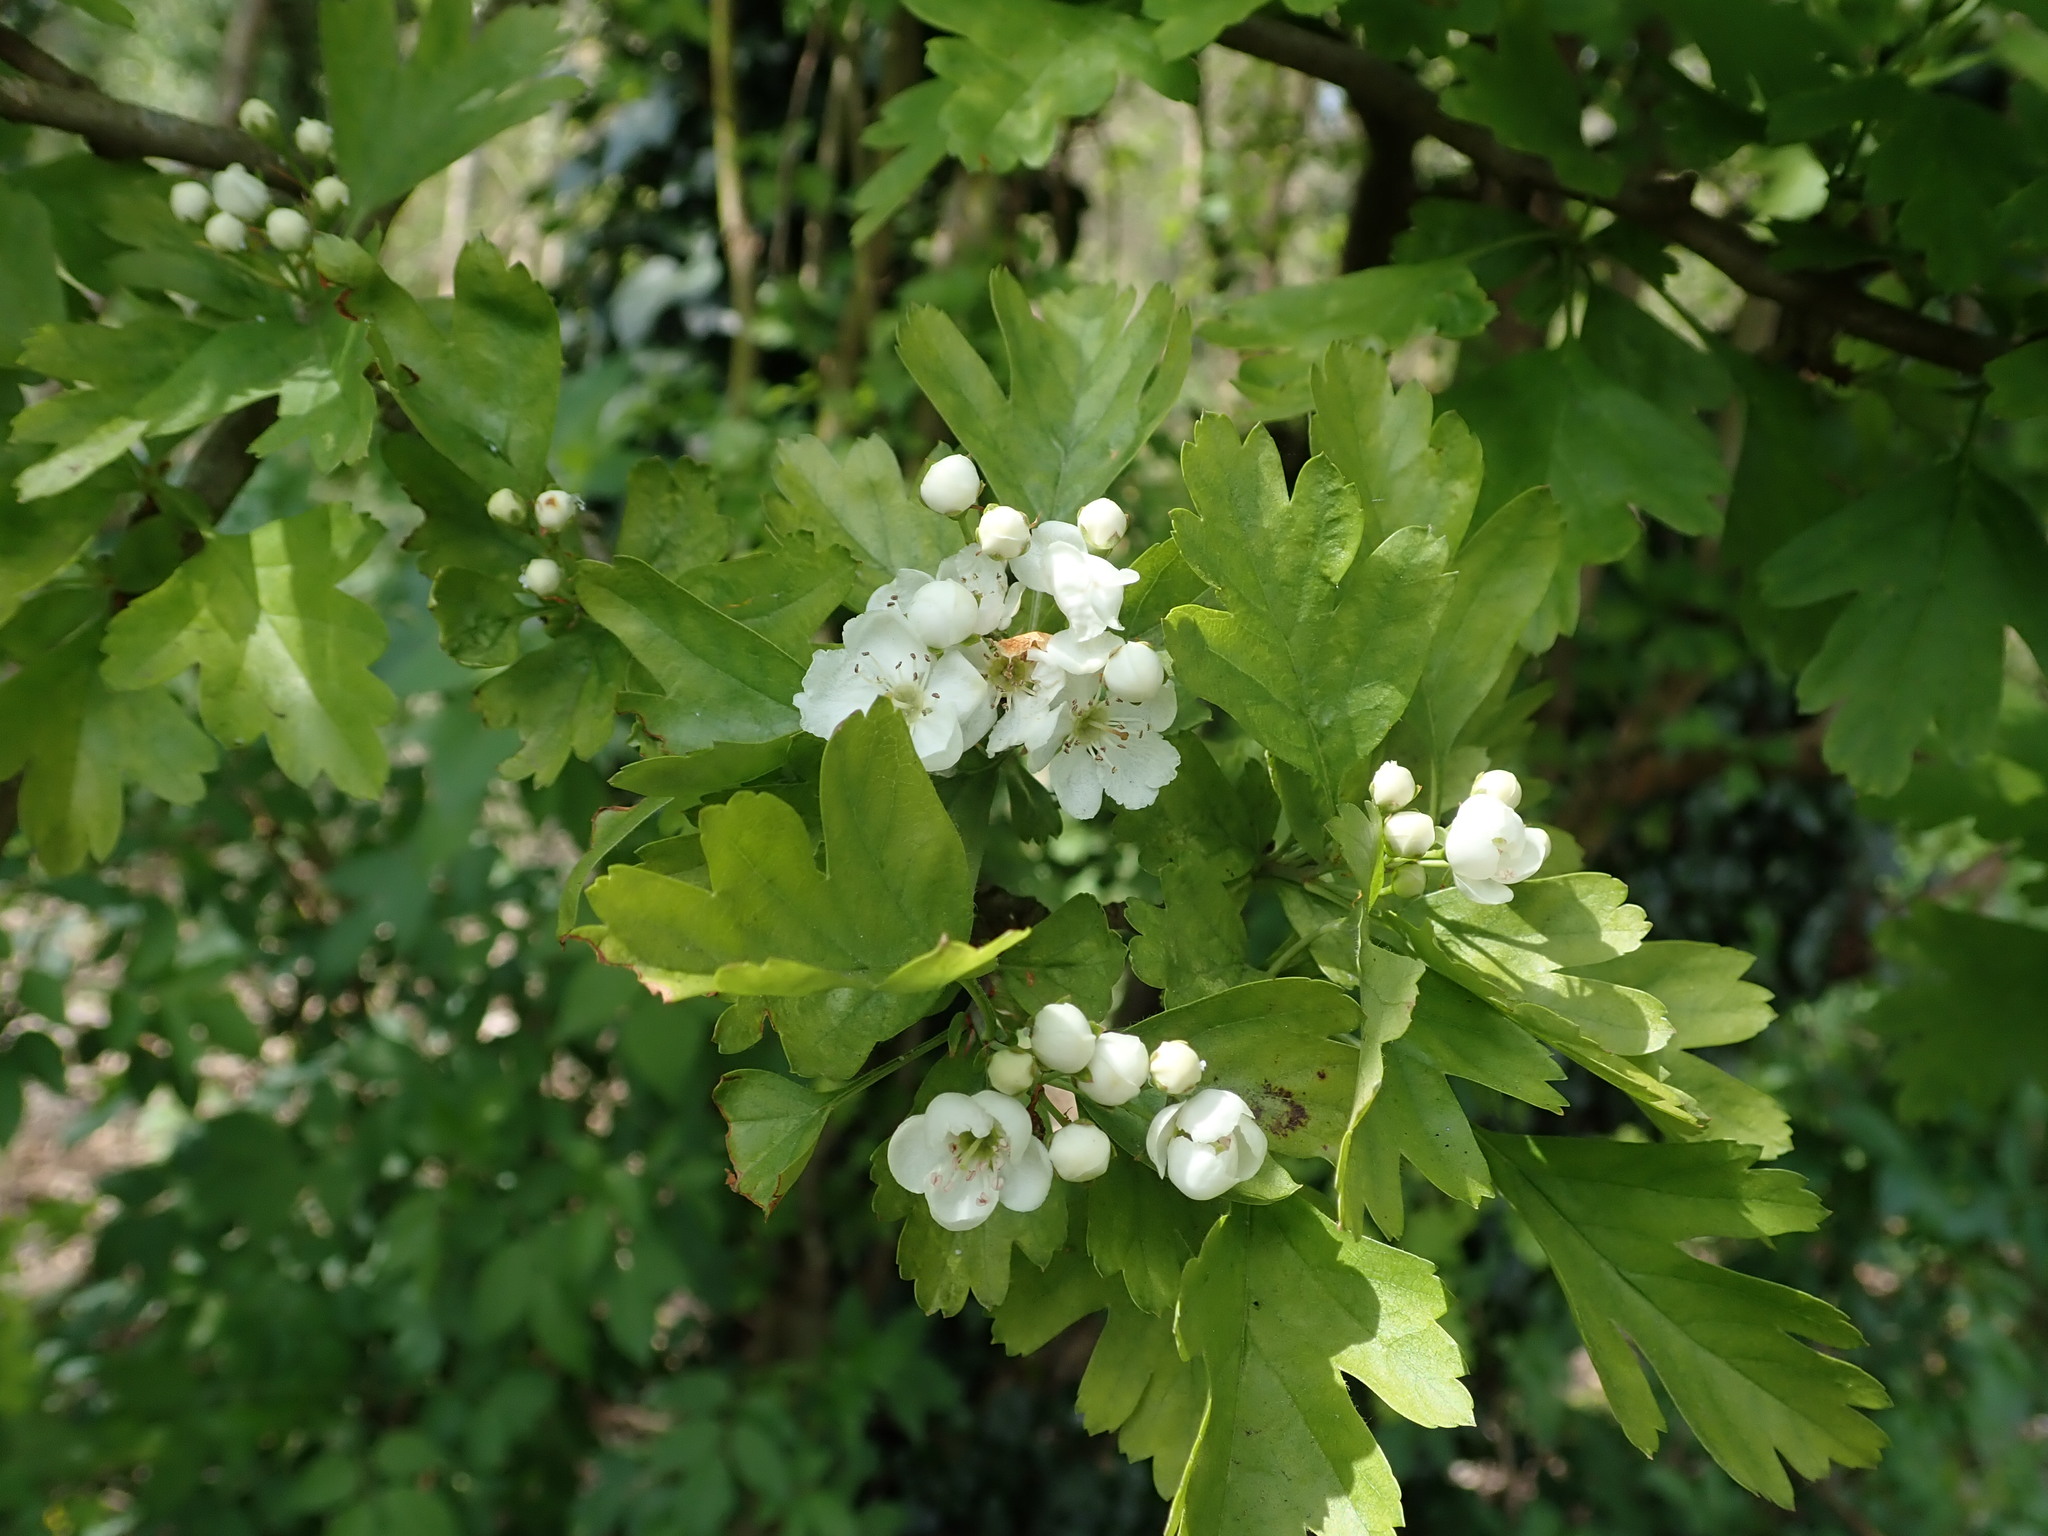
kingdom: Plantae
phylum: Tracheophyta
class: Magnoliopsida
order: Rosales
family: Rosaceae
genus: Crataegus
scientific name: Crataegus monogyna
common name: Hawthorn
